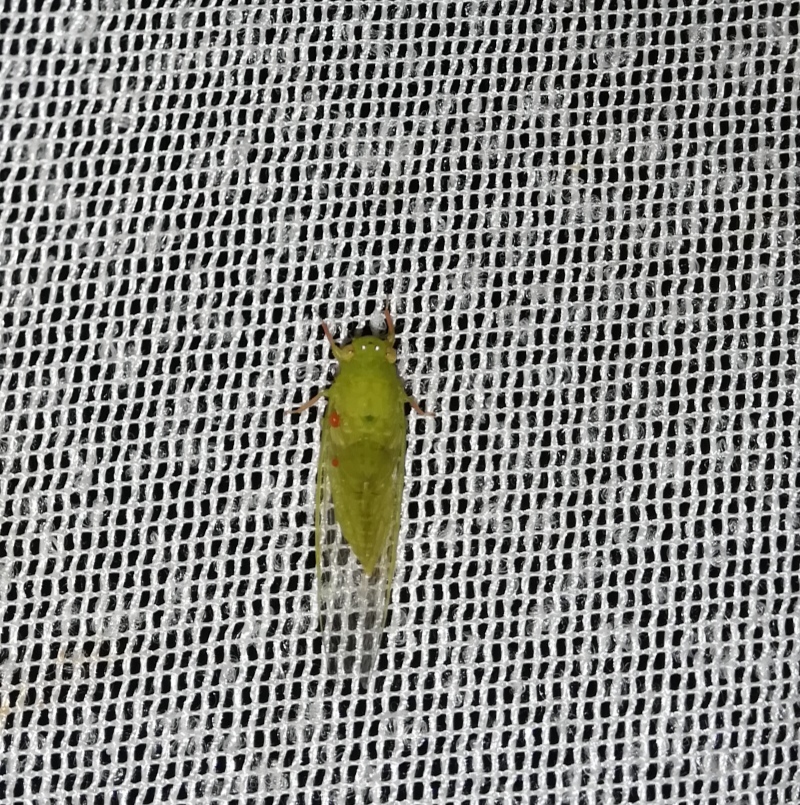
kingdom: Animalia
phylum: Arthropoda
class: Insecta
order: Hemiptera
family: Cicadidae
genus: Guineapsaltria
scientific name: Guineapsaltria flava
